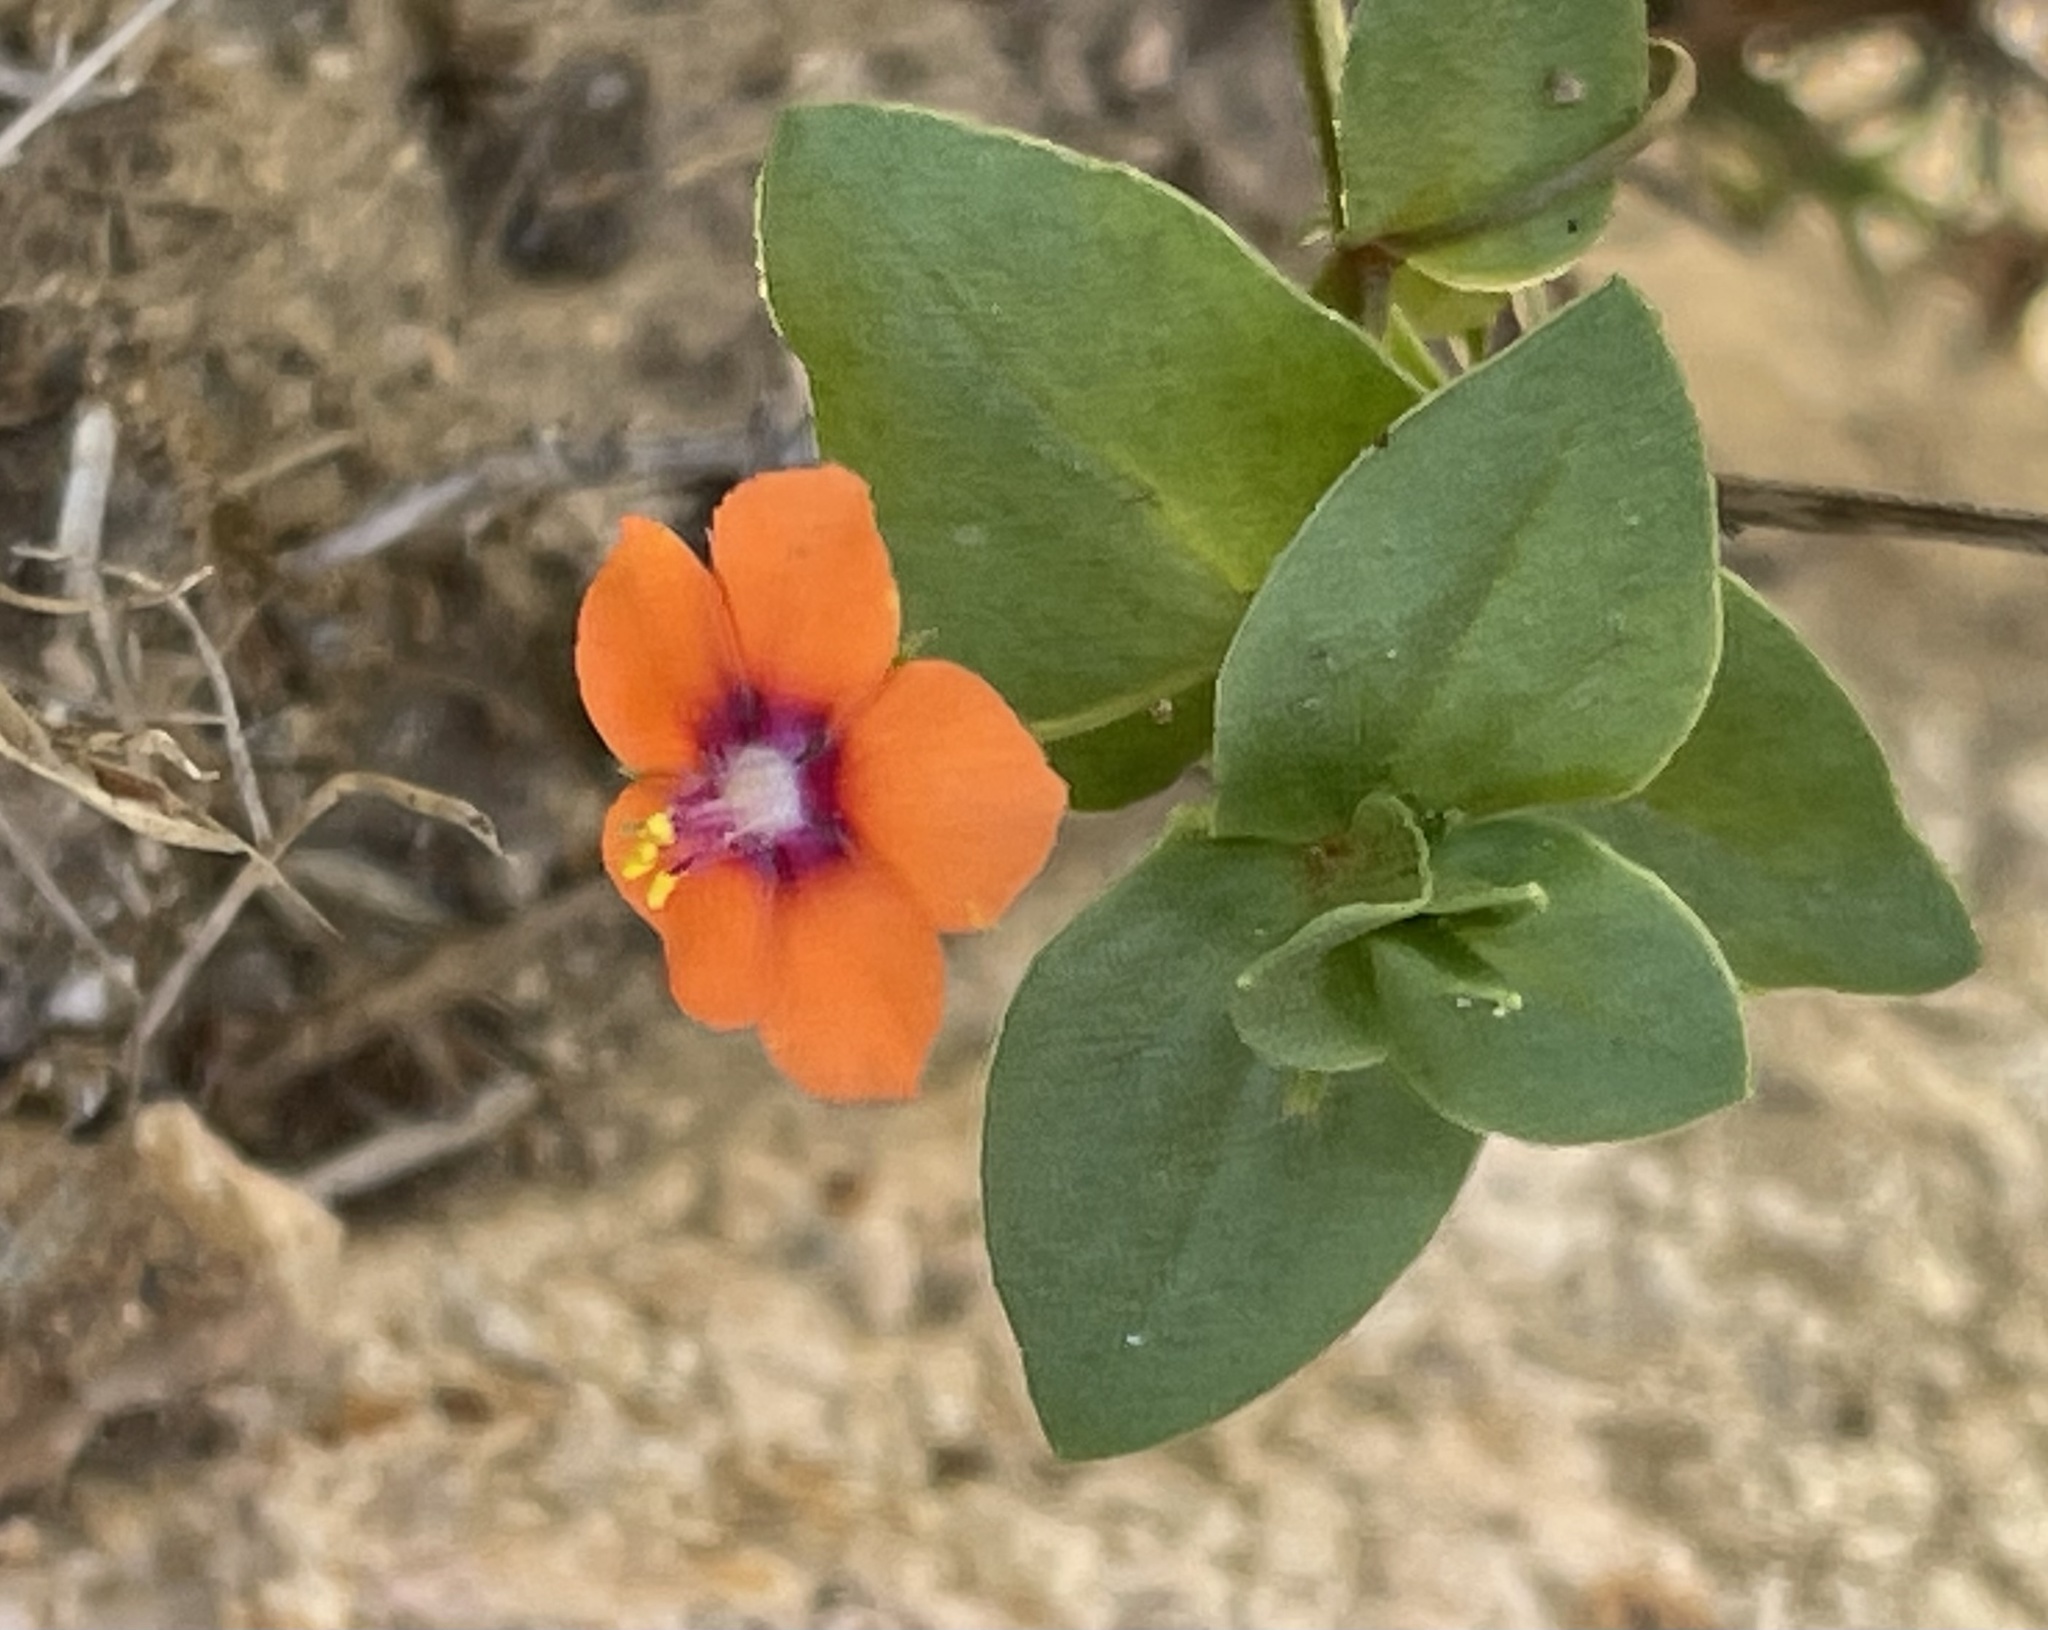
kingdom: Plantae
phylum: Tracheophyta
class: Magnoliopsida
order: Ericales
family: Primulaceae
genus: Lysimachia
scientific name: Lysimachia arvensis
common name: Scarlet pimpernel
